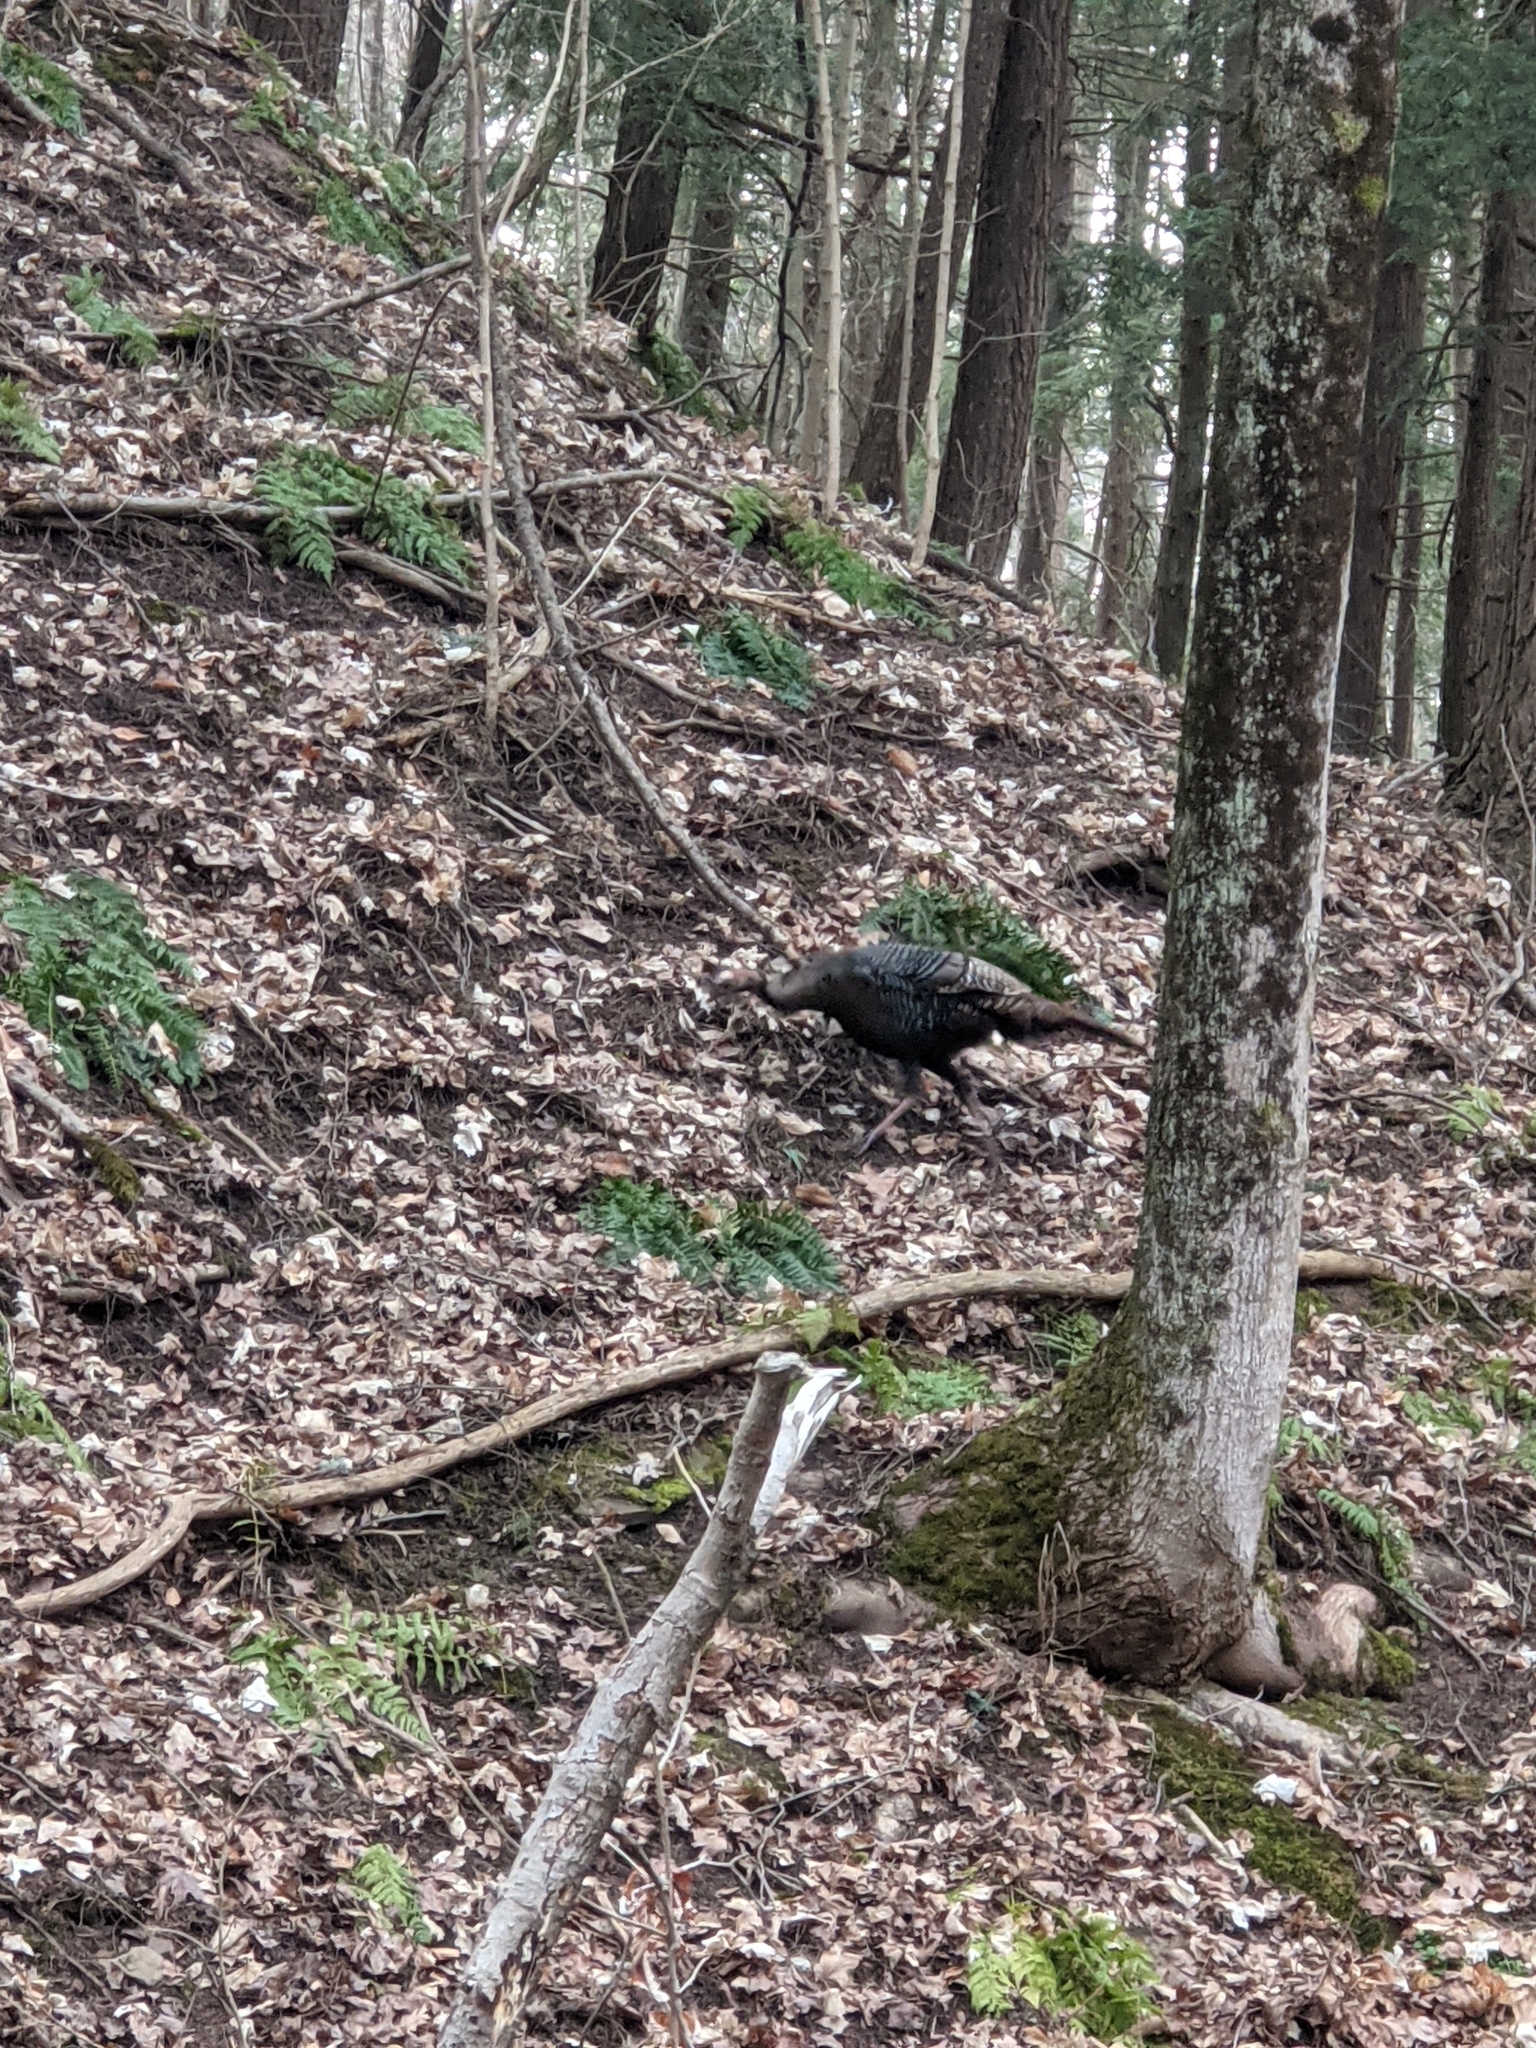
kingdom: Animalia
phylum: Chordata
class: Aves
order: Galliformes
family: Phasianidae
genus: Meleagris
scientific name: Meleagris gallopavo
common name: Wild turkey
